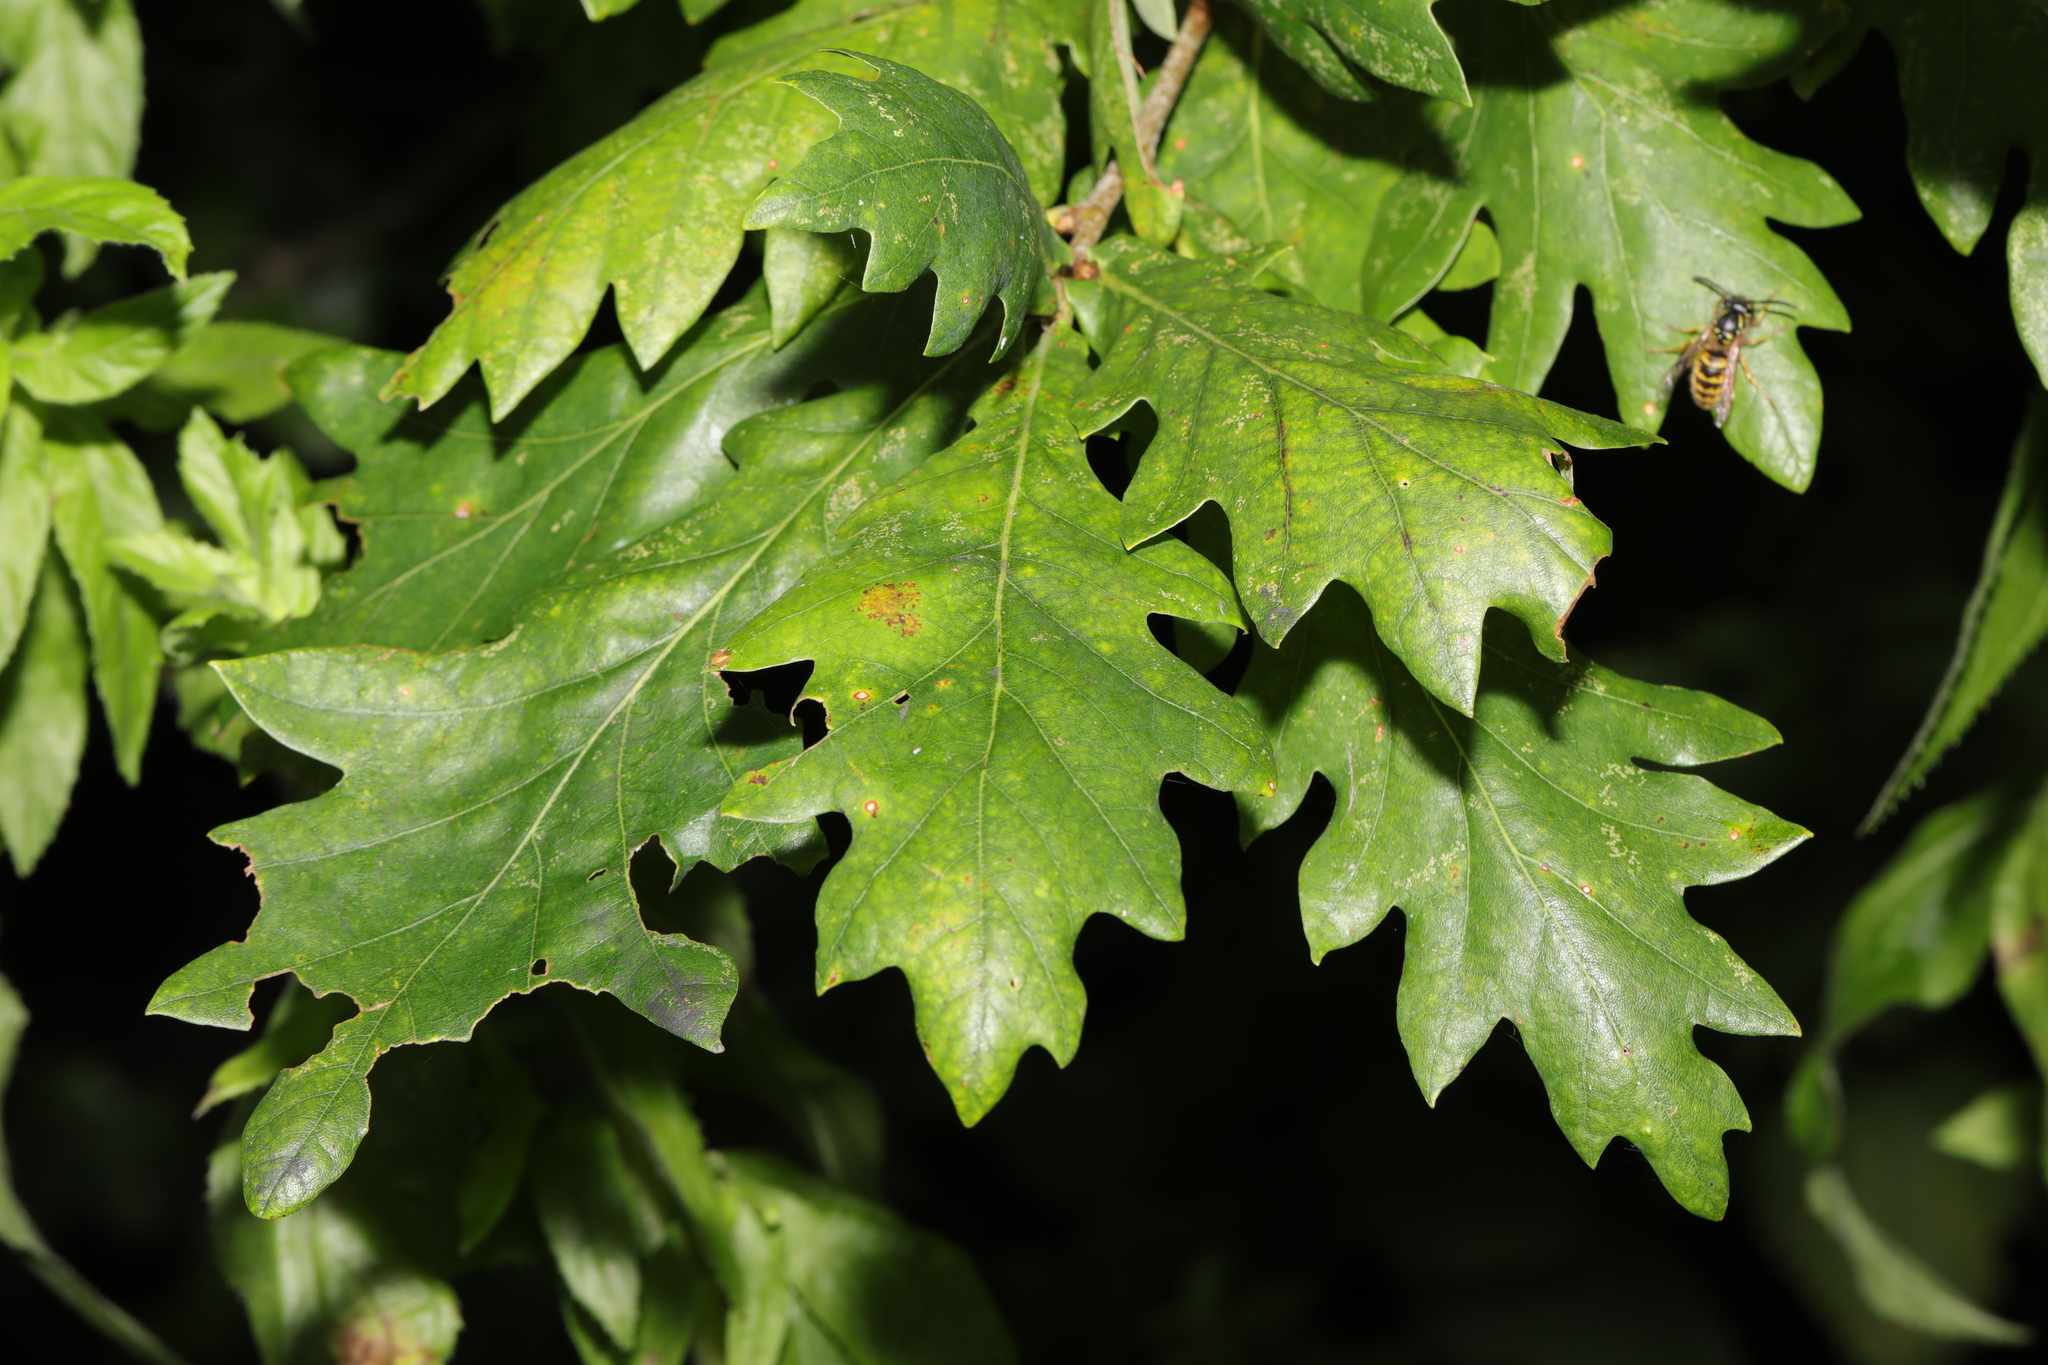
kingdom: Plantae
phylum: Tracheophyta
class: Magnoliopsida
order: Fagales
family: Fagaceae
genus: Quercus
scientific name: Quercus cerris
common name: Turkey oak
